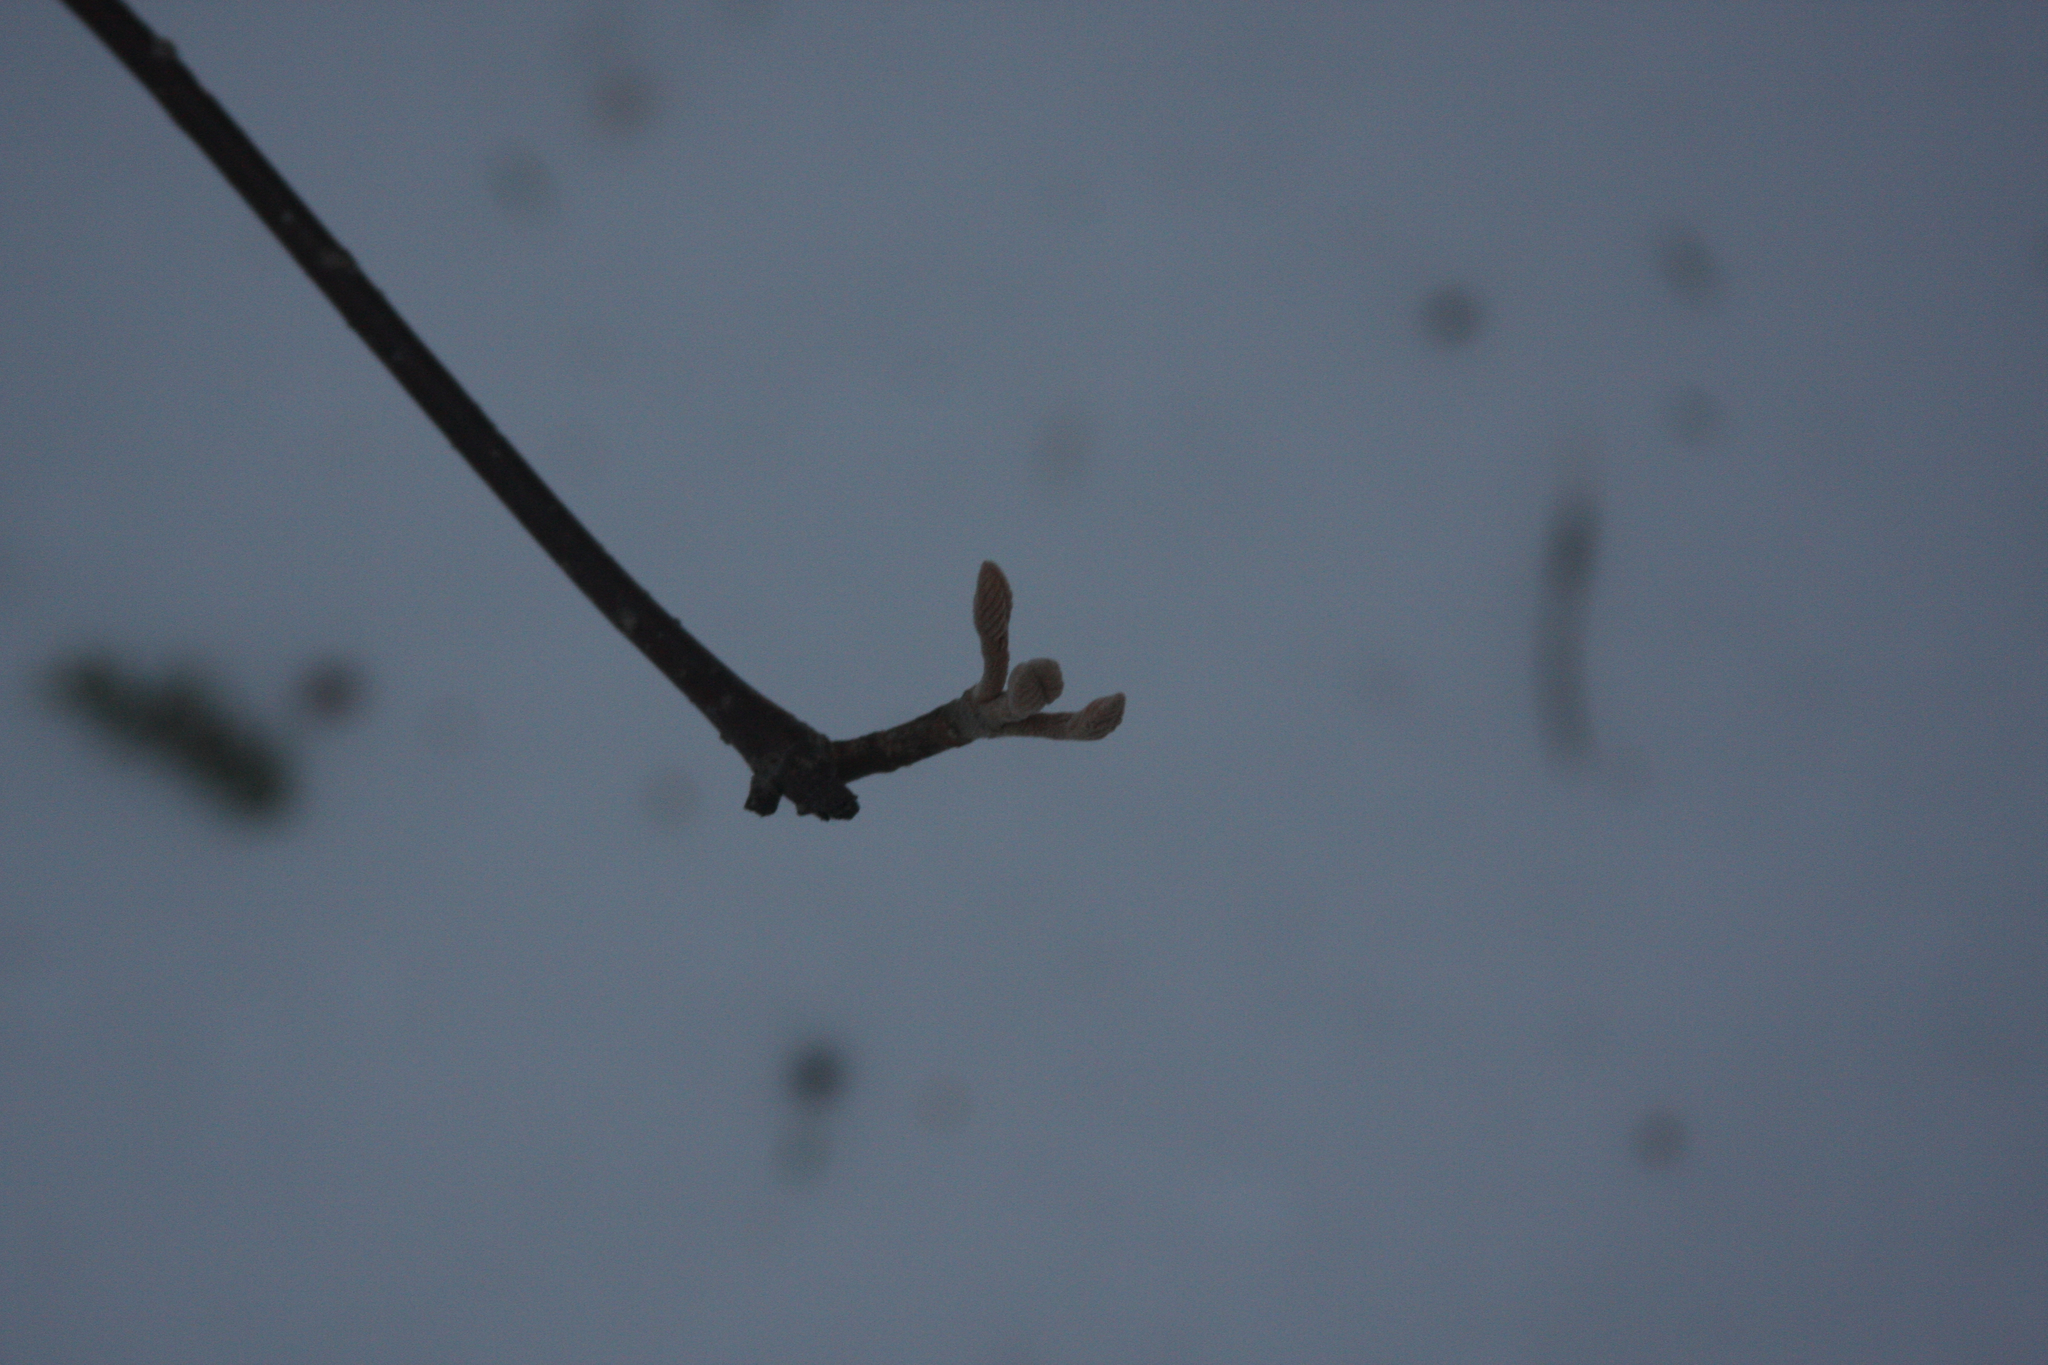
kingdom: Plantae
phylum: Tracheophyta
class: Magnoliopsida
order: Dipsacales
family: Viburnaceae
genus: Viburnum
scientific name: Viburnum lantanoides
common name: Hobblebush
